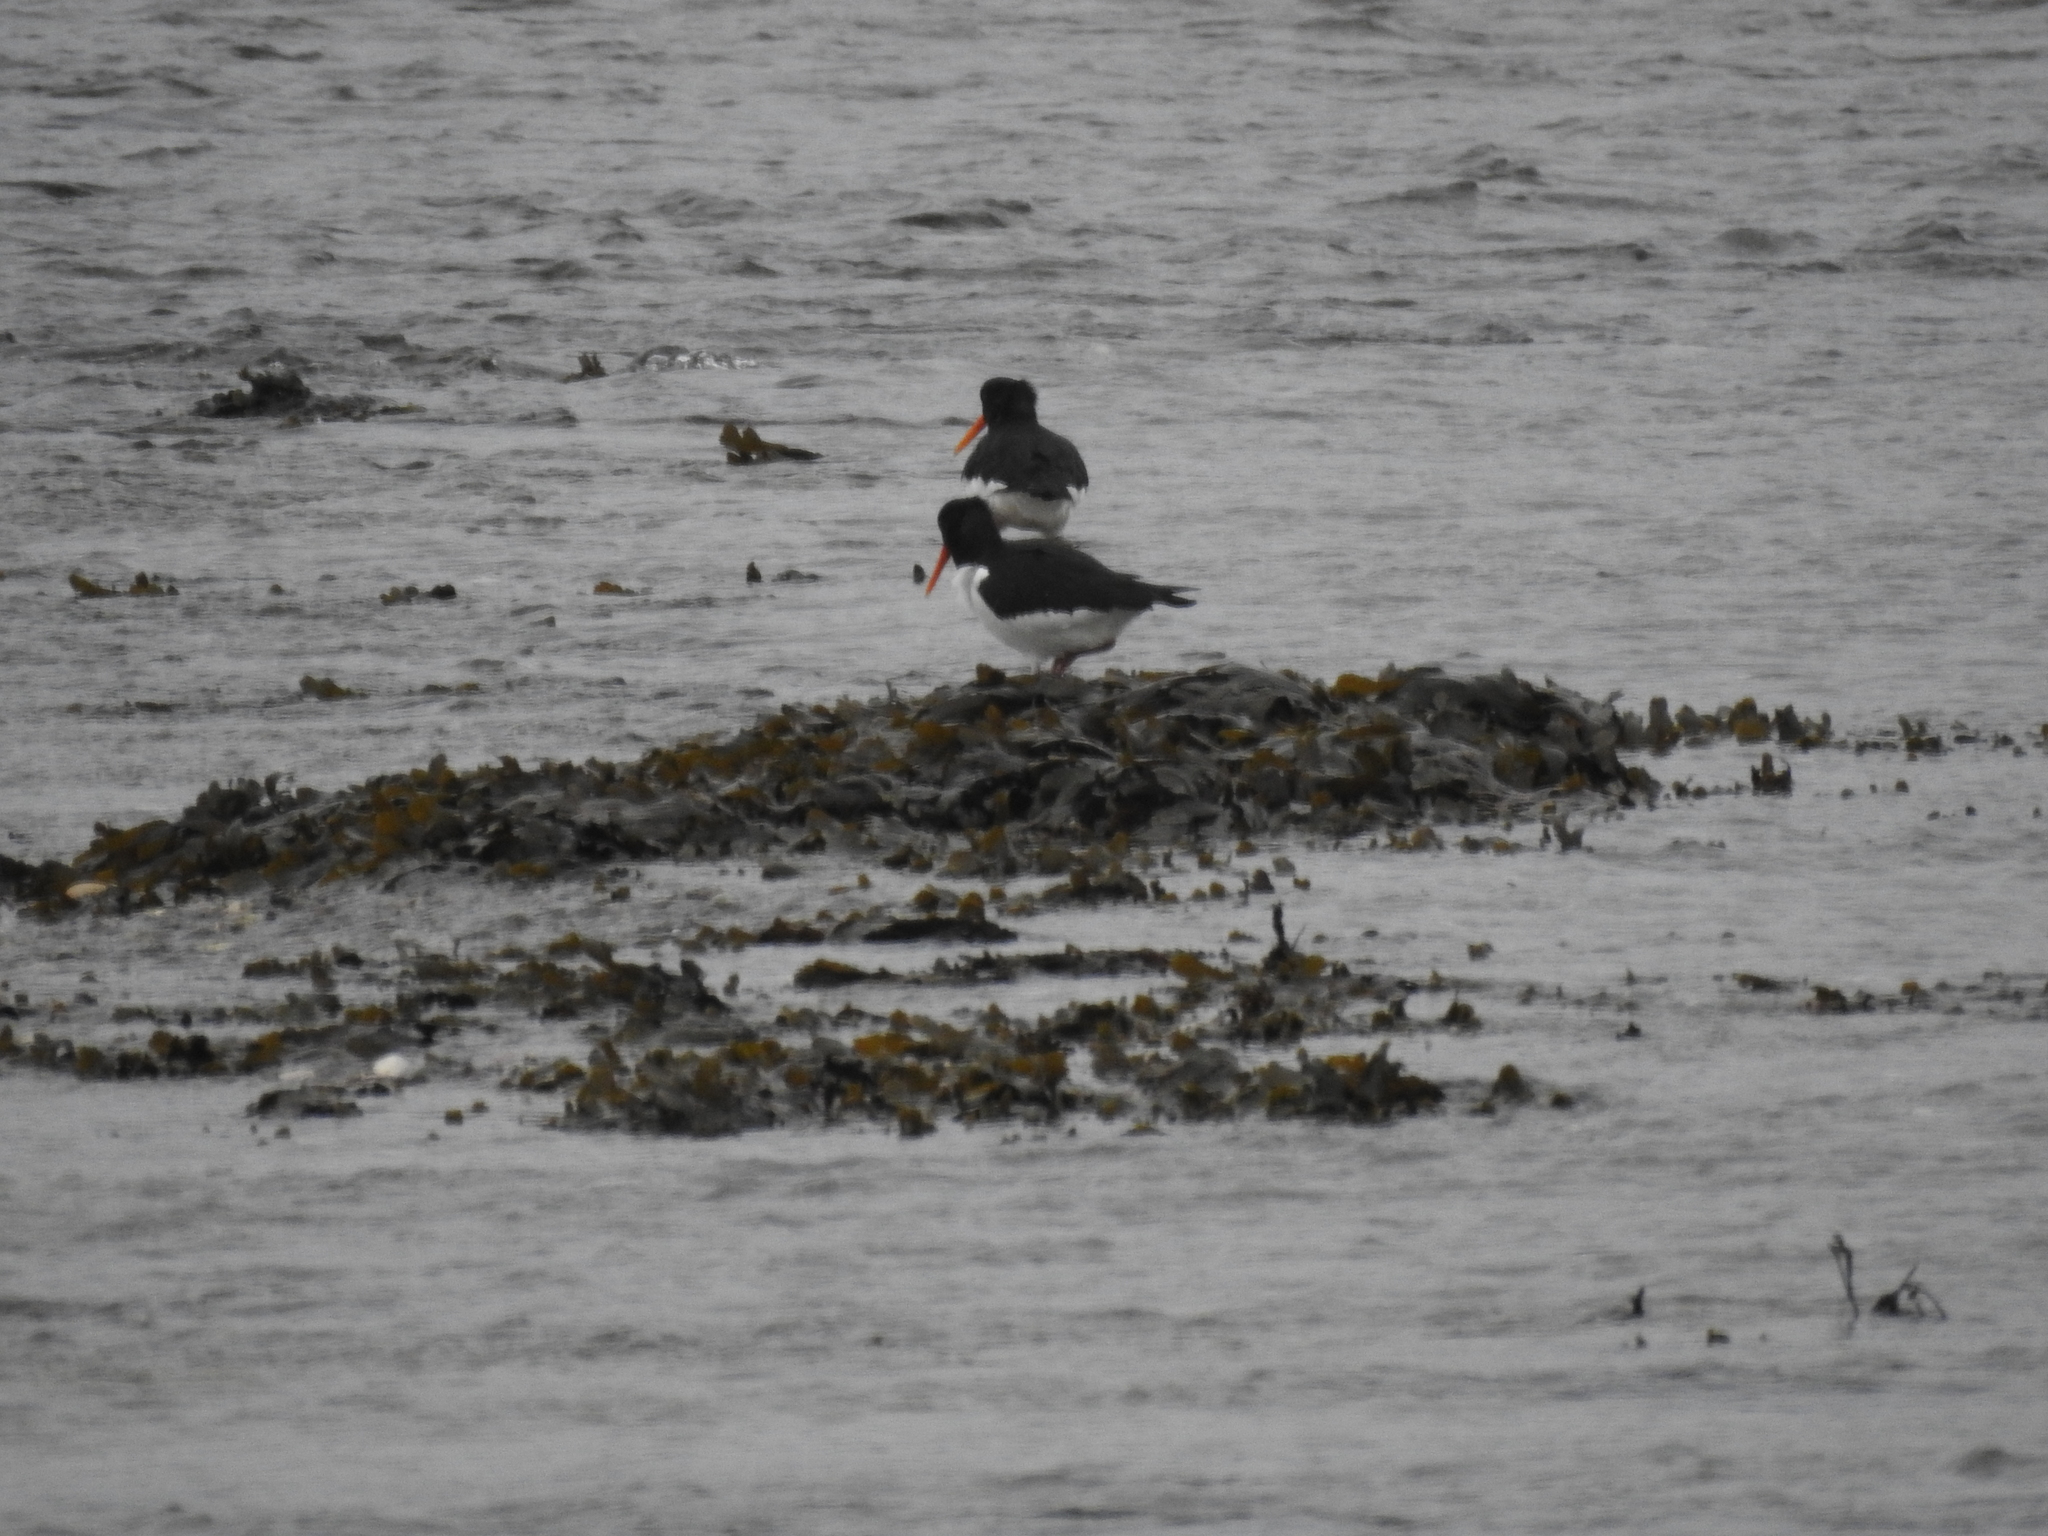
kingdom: Animalia
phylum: Chordata
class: Aves
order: Charadriiformes
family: Haematopodidae
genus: Haematopus
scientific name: Haematopus ostralegus
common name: Eurasian oystercatcher
